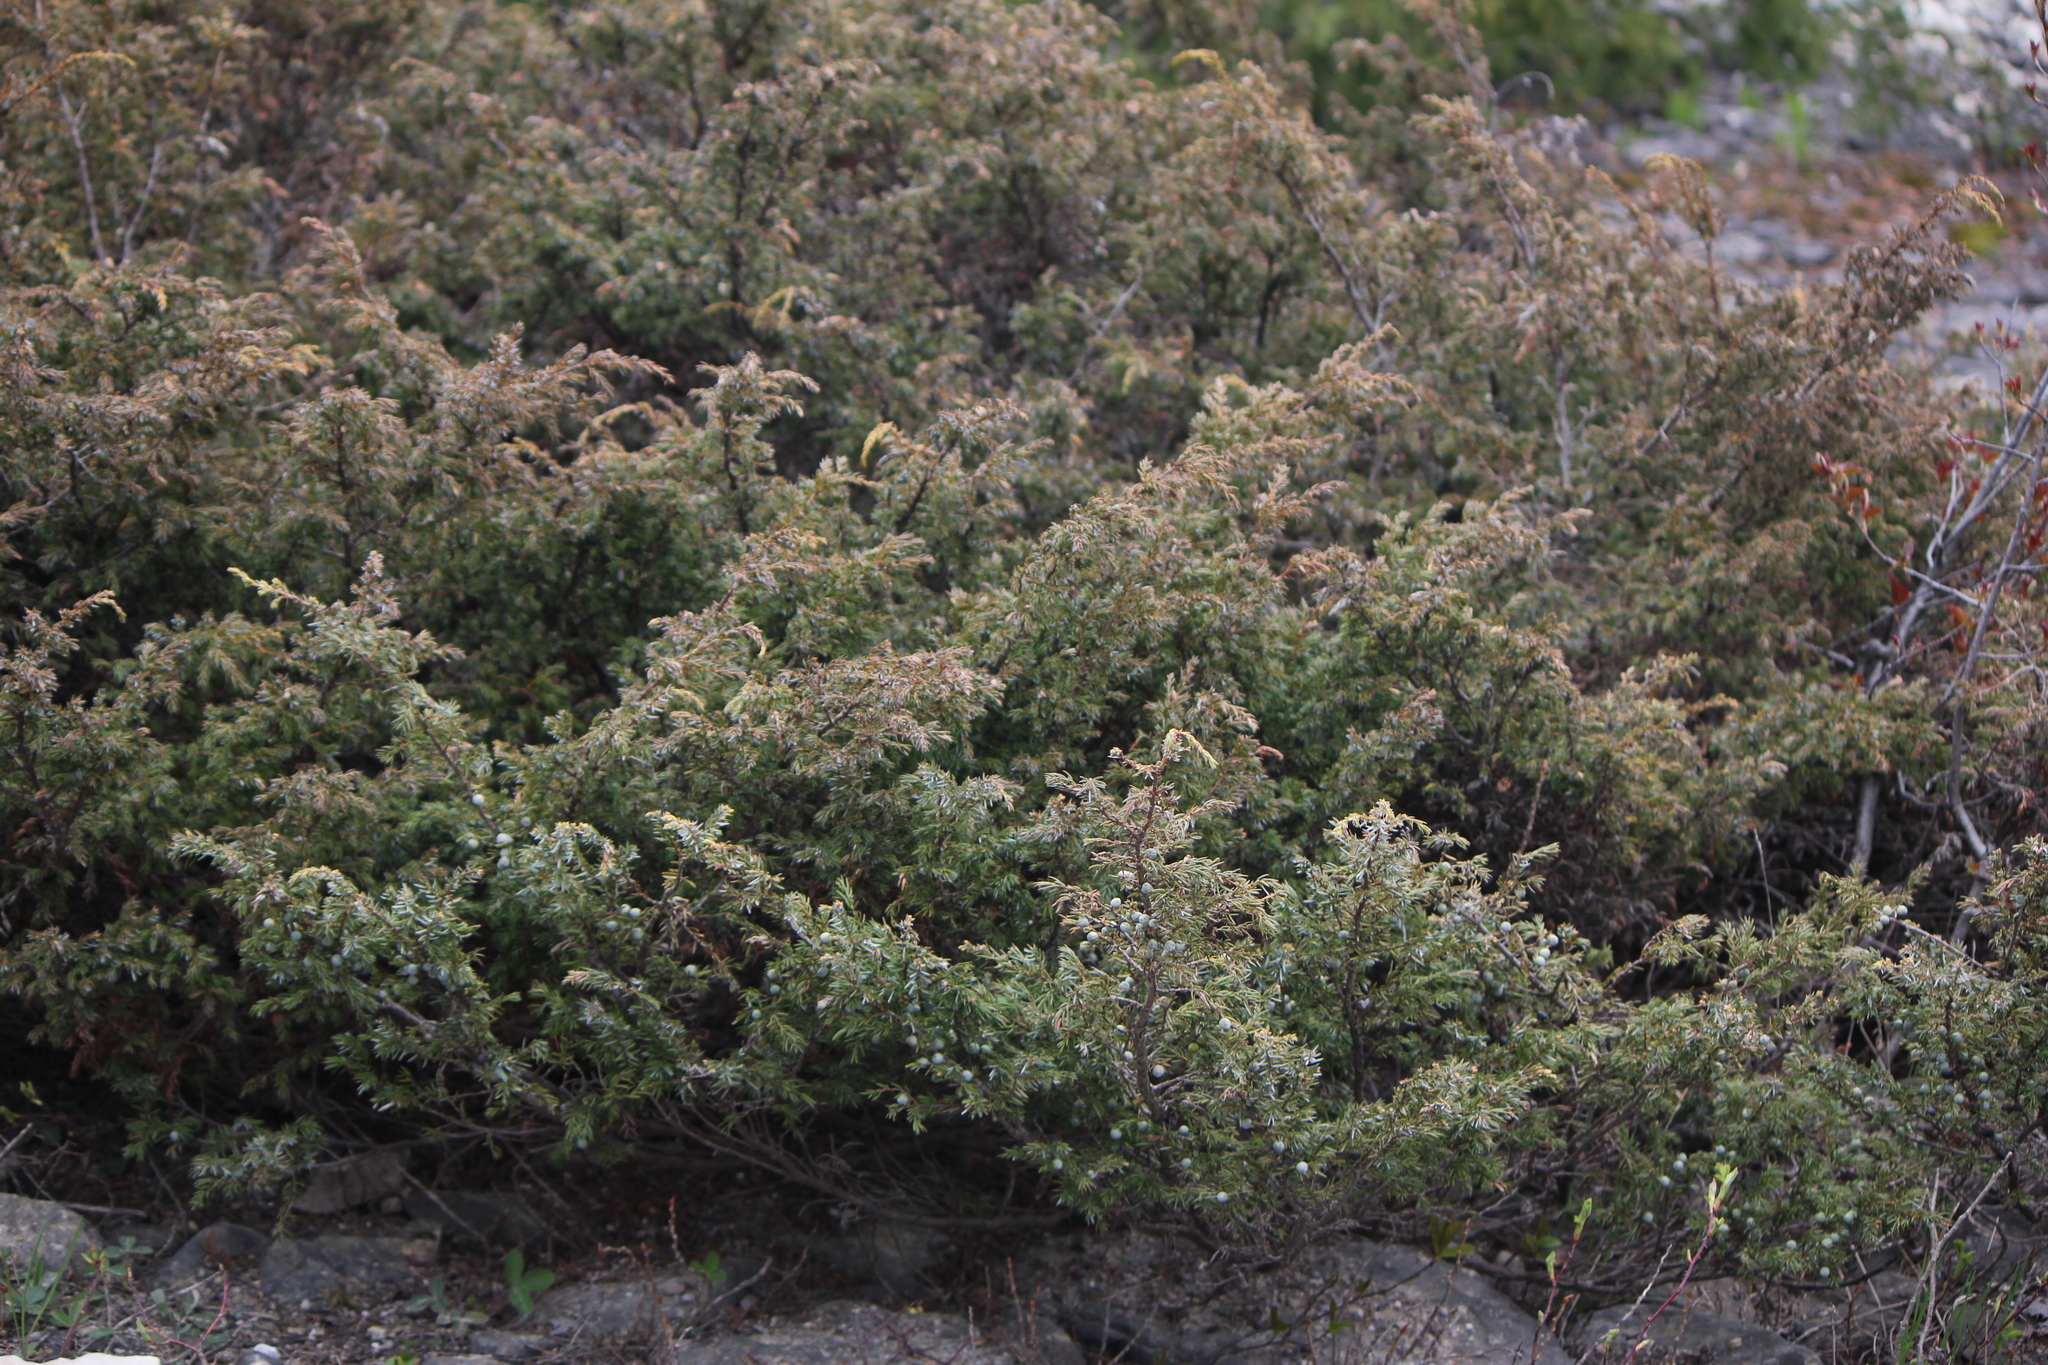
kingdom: Plantae
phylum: Tracheophyta
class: Pinopsida
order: Pinales
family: Cupressaceae
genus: Juniperus
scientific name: Juniperus communis
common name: Common juniper
